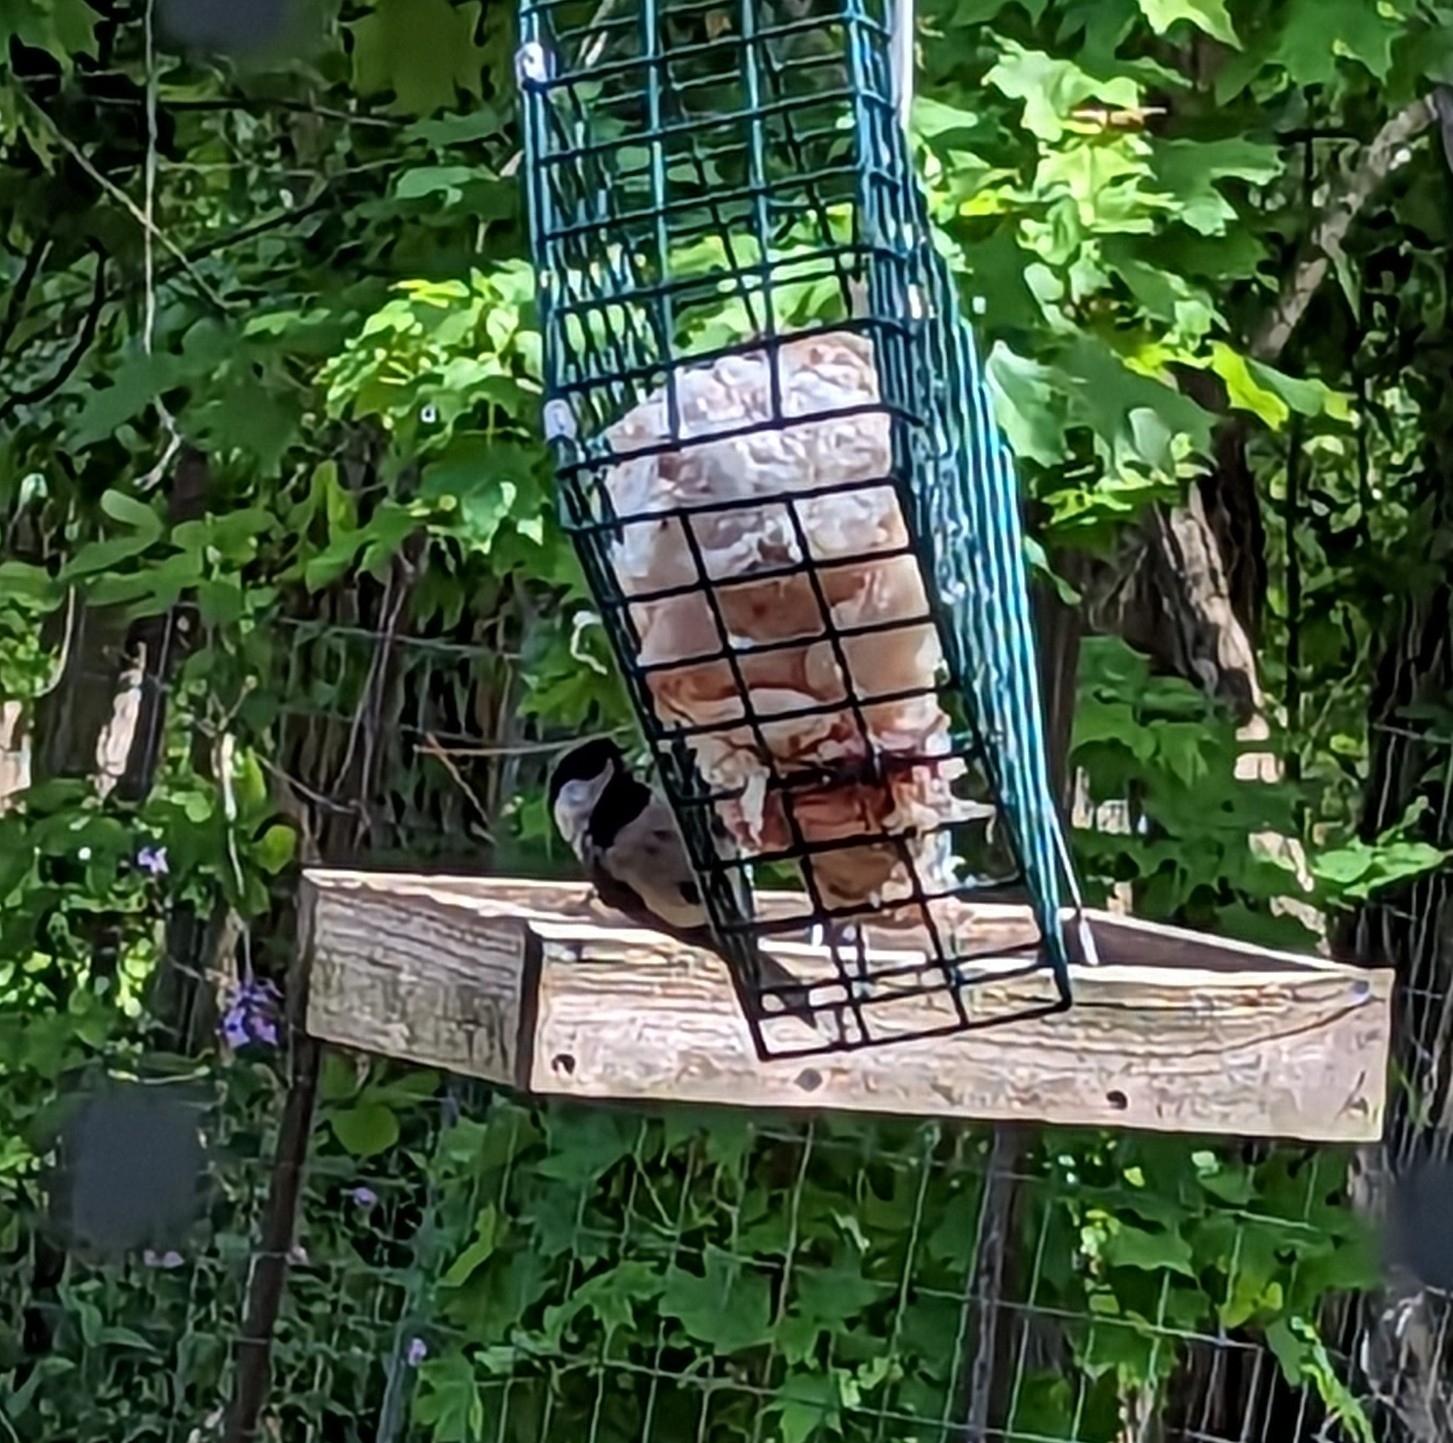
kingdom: Animalia
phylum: Chordata
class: Aves
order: Passeriformes
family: Paridae
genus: Poecile
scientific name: Poecile atricapillus
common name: Black-capped chickadee
